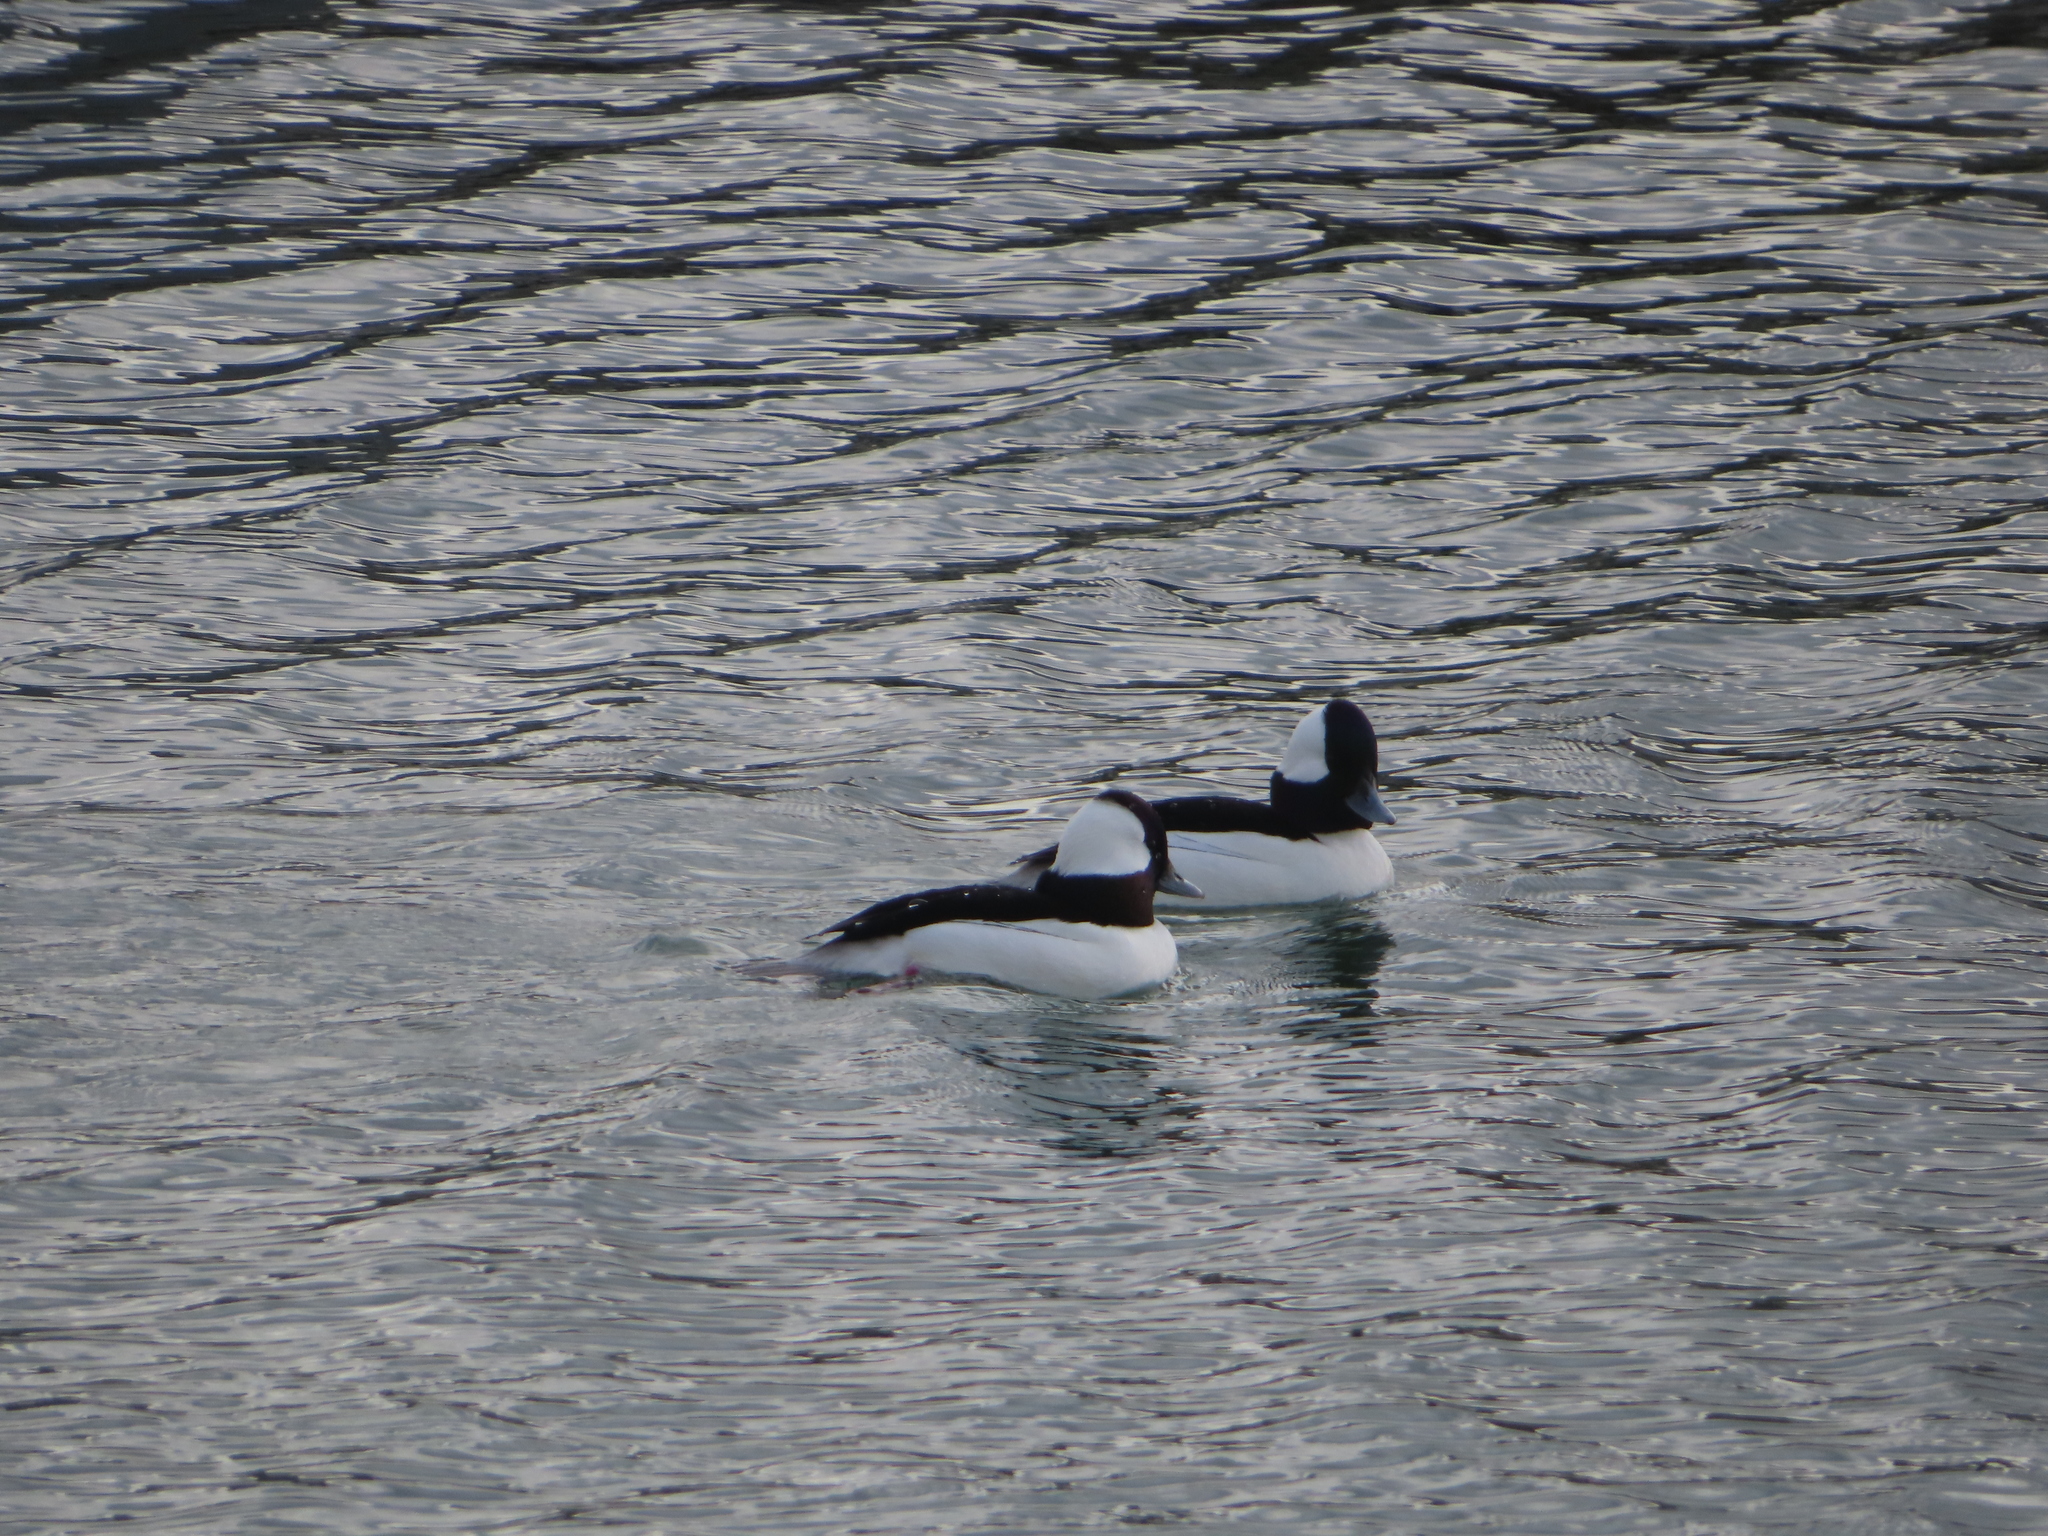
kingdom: Animalia
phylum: Chordata
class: Aves
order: Anseriformes
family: Anatidae
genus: Bucephala
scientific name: Bucephala albeola
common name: Bufflehead
